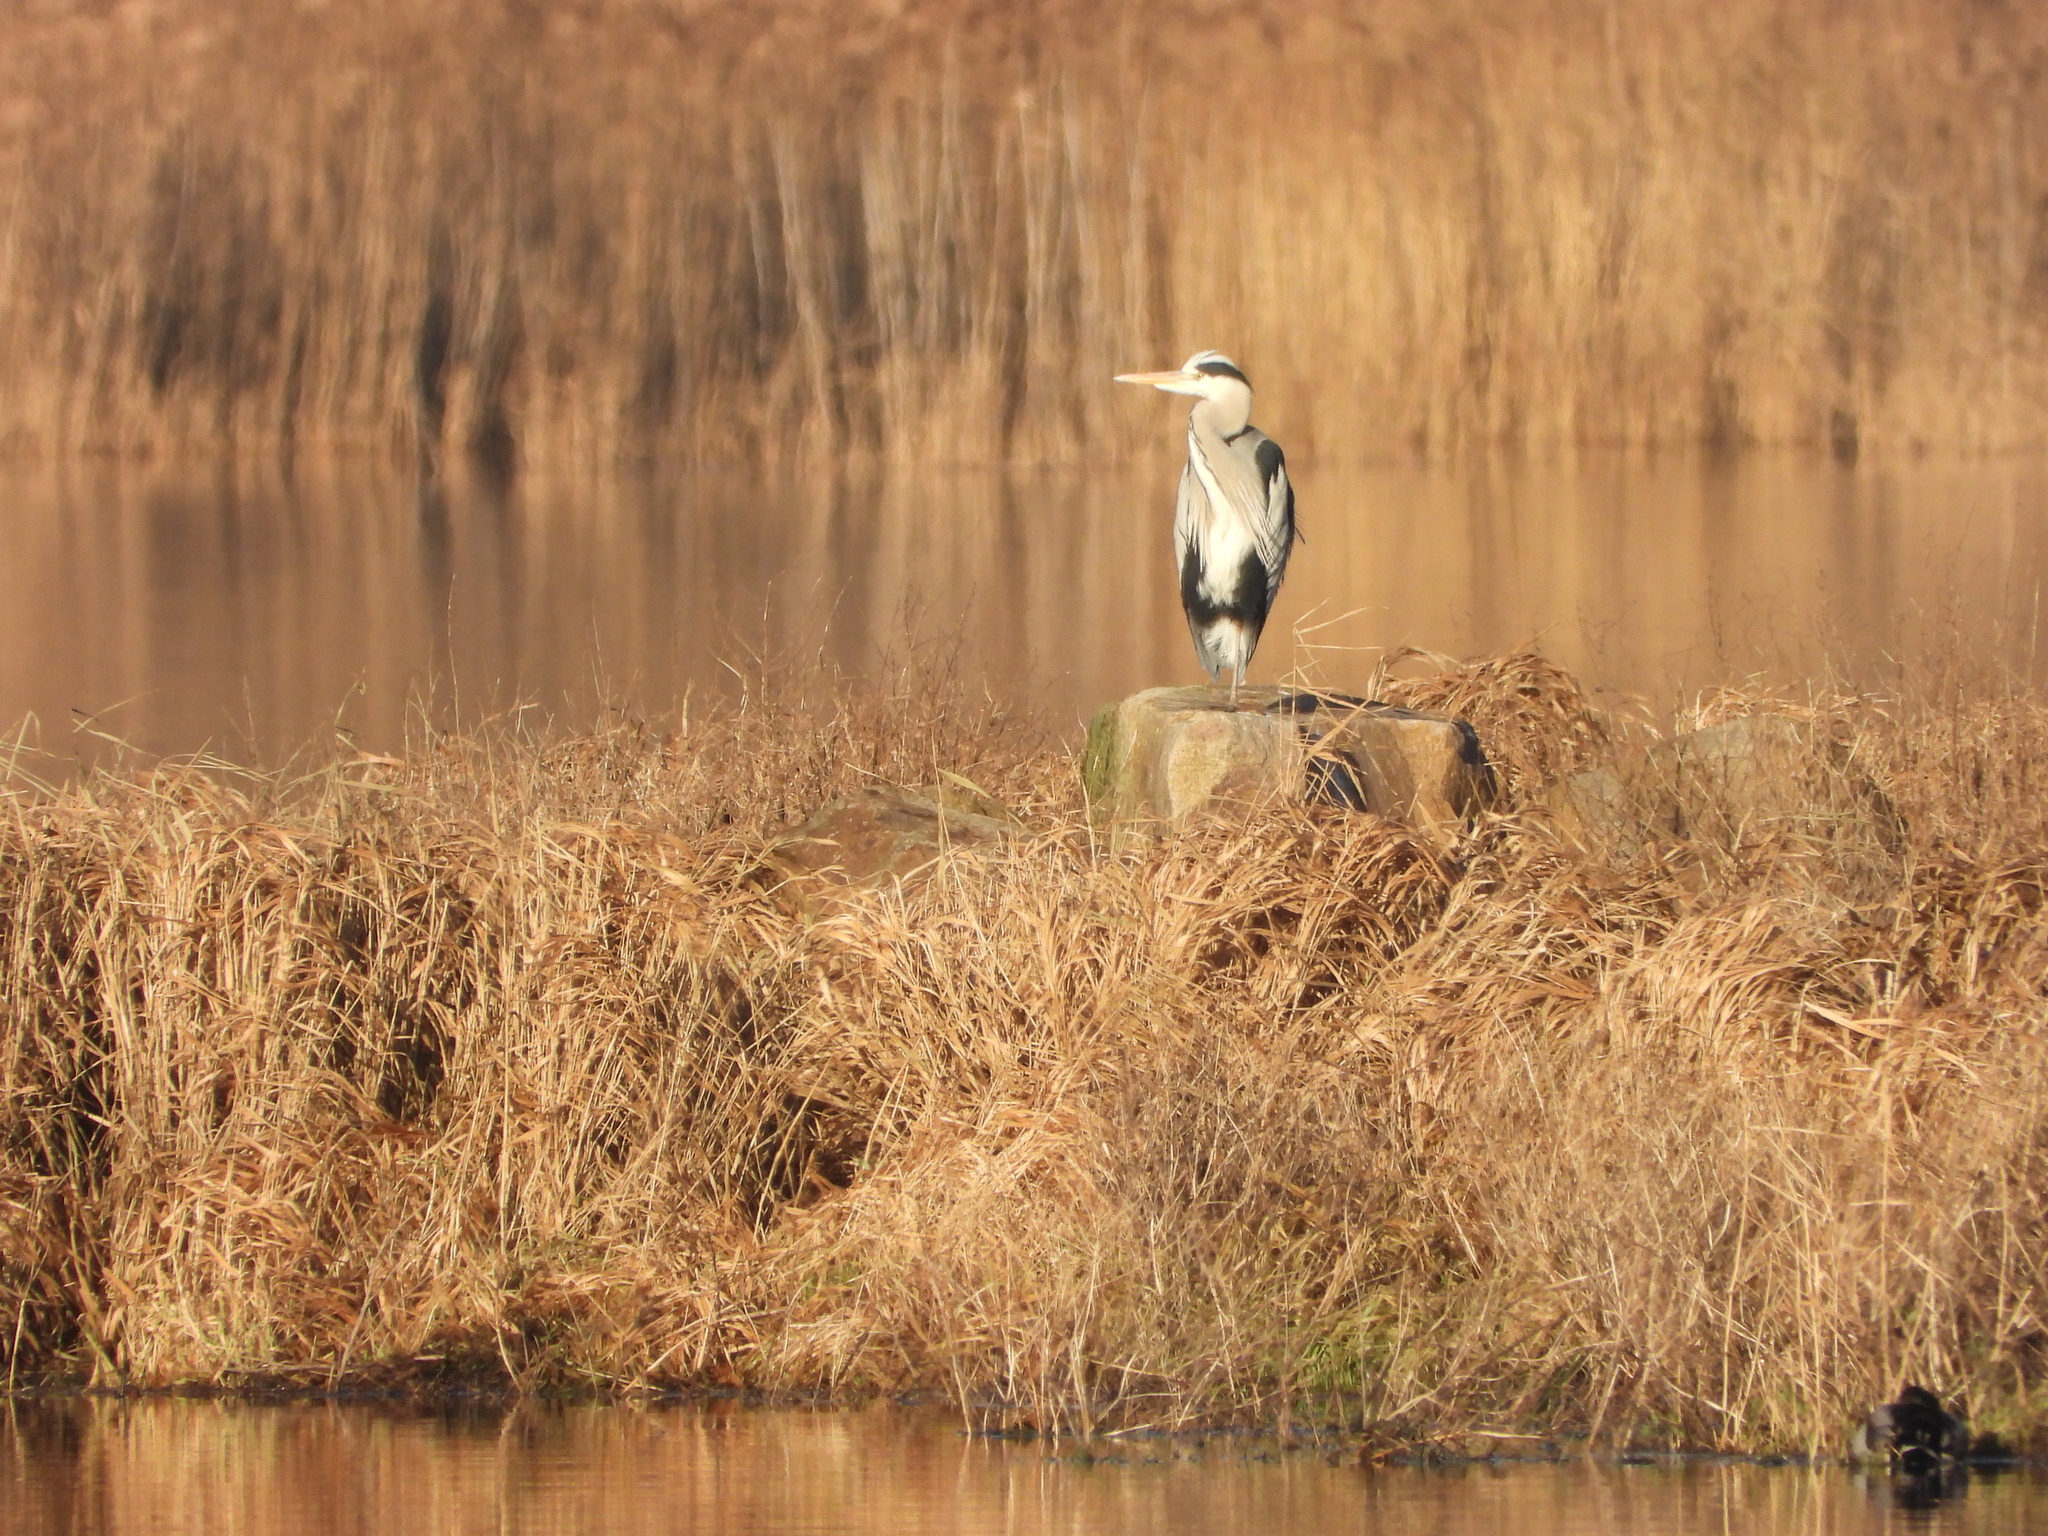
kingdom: Animalia
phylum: Chordata
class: Aves
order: Pelecaniformes
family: Ardeidae
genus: Ardea
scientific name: Ardea cinerea
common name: Grey heron
